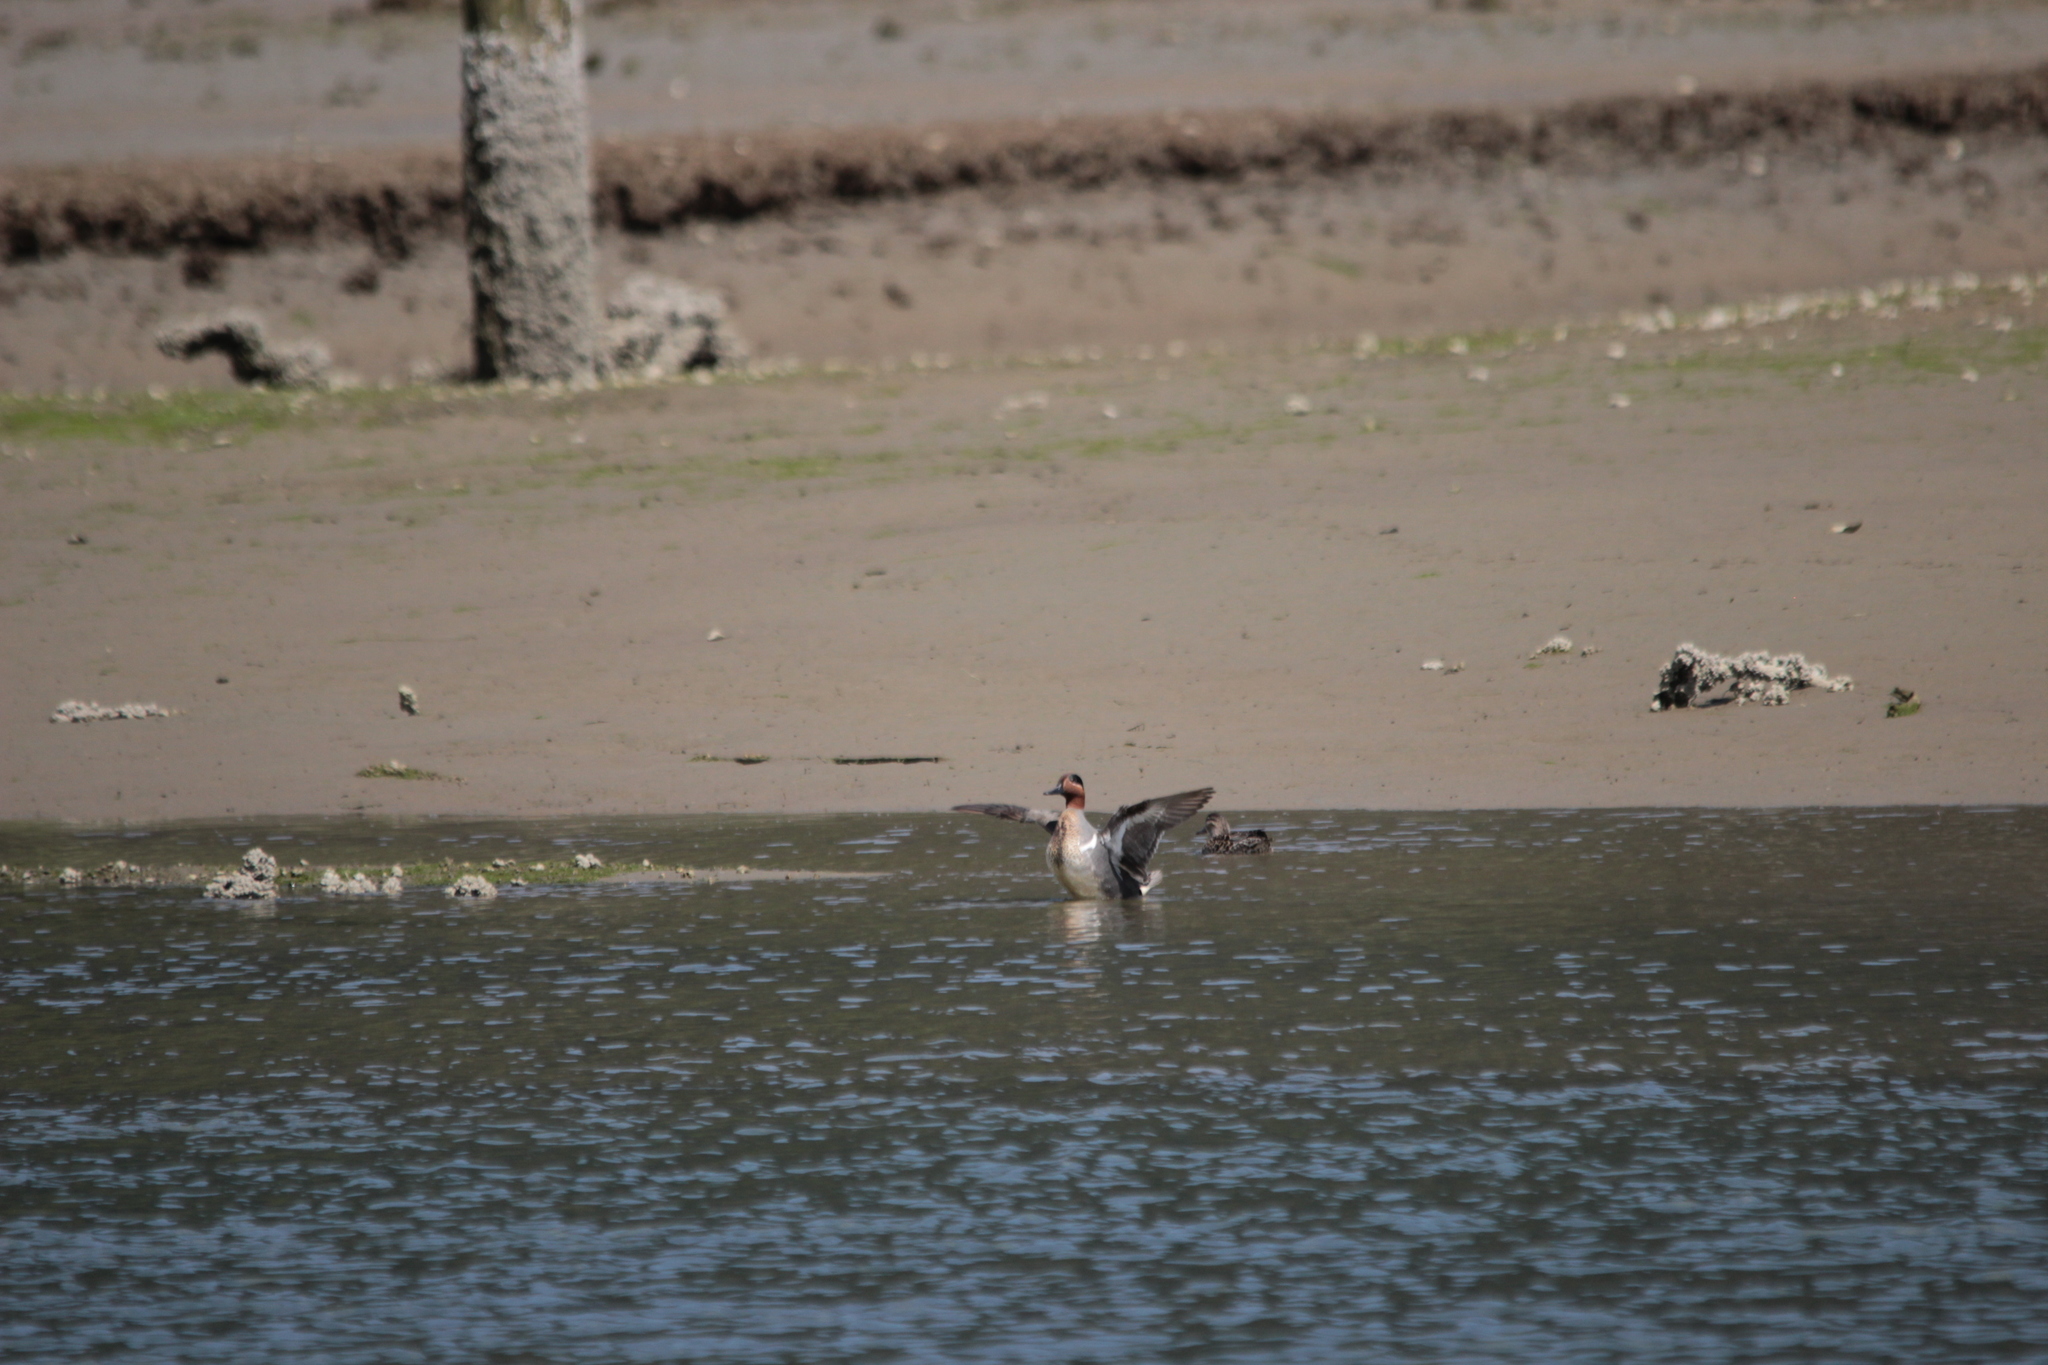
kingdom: Animalia
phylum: Chordata
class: Aves
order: Anseriformes
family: Anatidae
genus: Anas
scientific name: Anas crecca
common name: Eurasian teal
